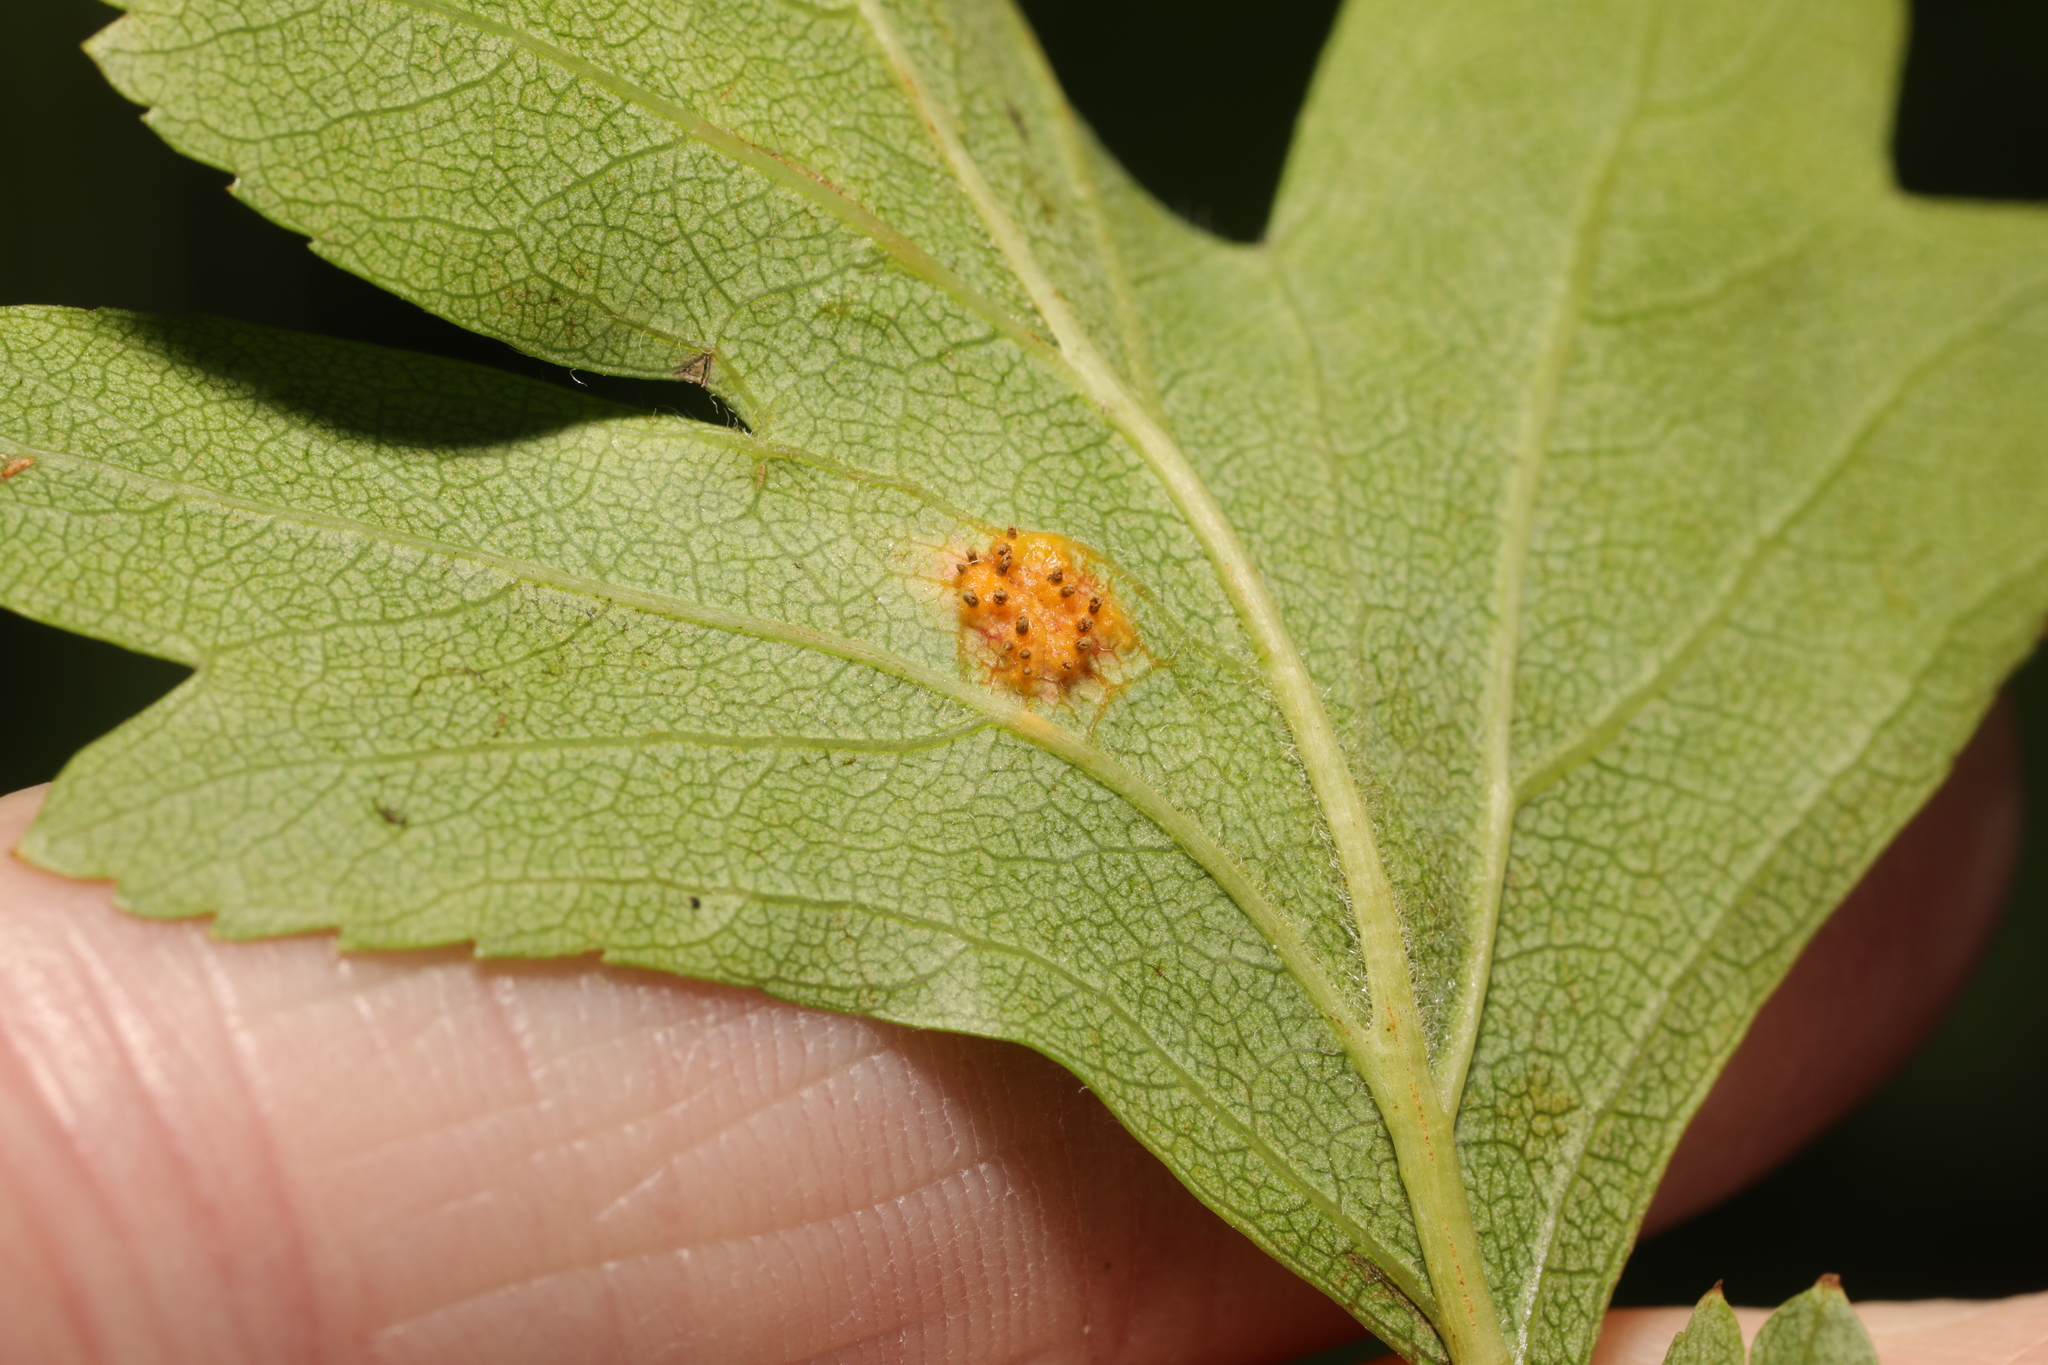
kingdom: Fungi
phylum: Basidiomycota
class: Pucciniomycetes
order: Pucciniales
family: Gymnosporangiaceae
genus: Gymnosporangium
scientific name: Gymnosporangium clavariiforme
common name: Tongues of fire
